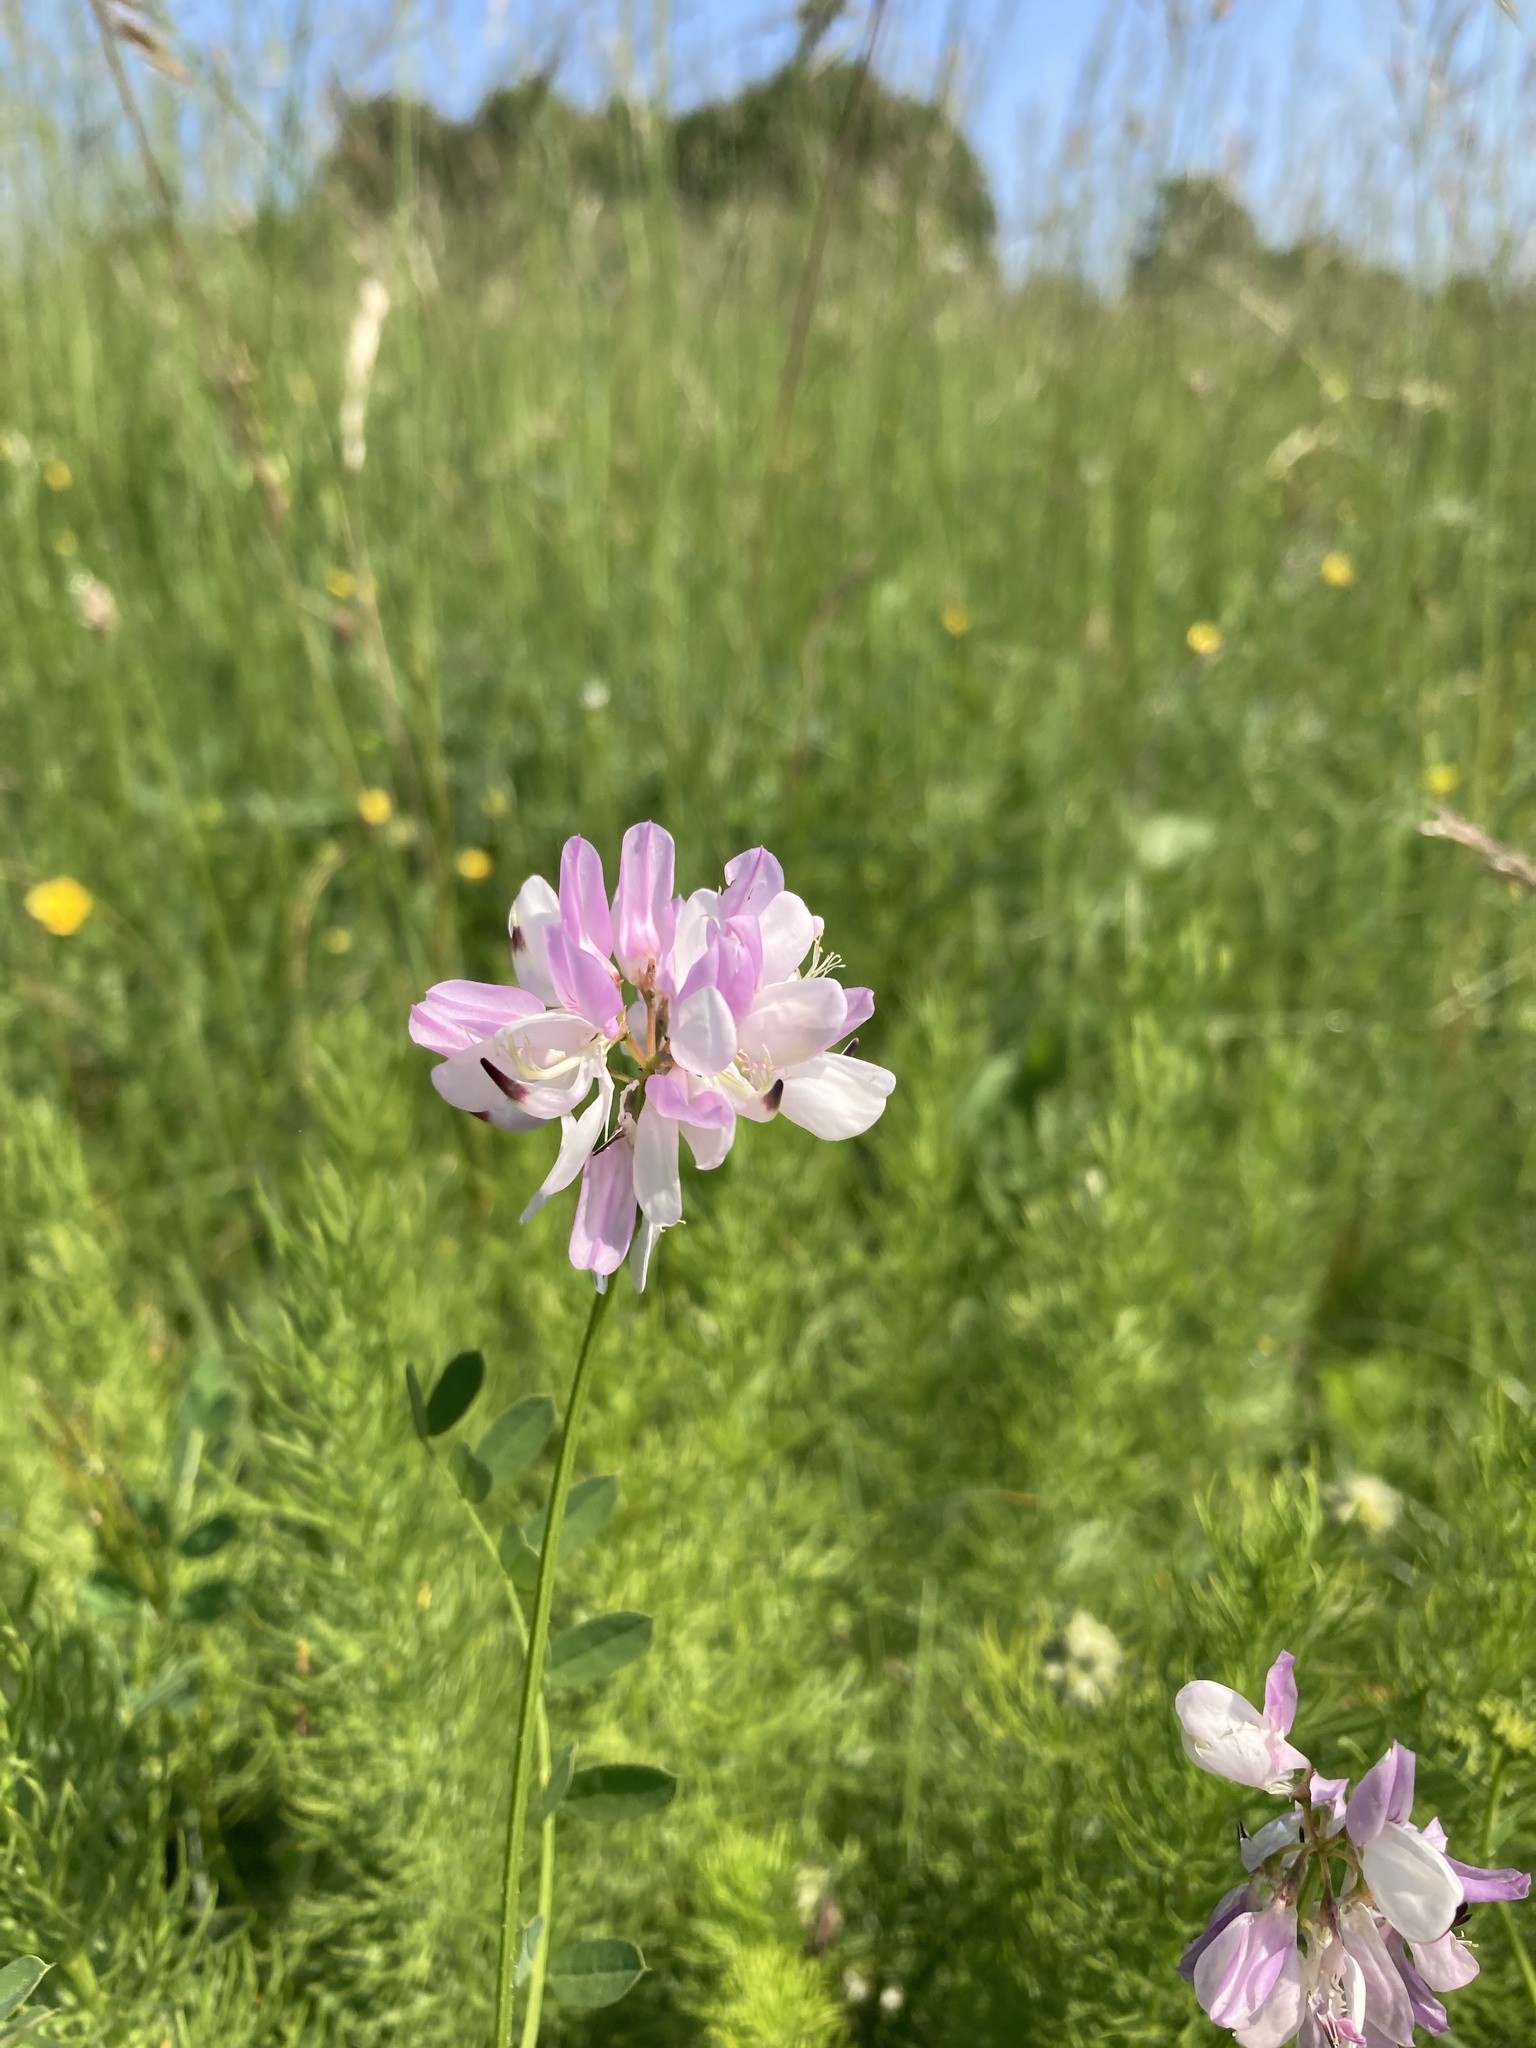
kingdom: Plantae
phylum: Tracheophyta
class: Magnoliopsida
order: Fabales
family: Fabaceae
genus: Coronilla
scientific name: Coronilla varia
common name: Crownvetch
